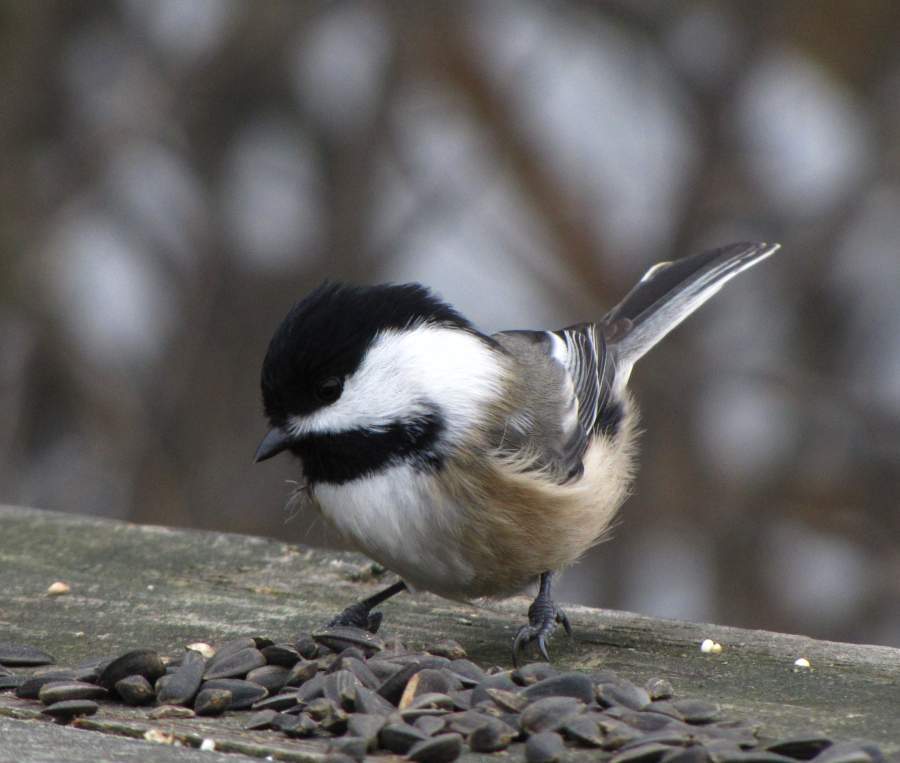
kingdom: Animalia
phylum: Chordata
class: Aves
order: Passeriformes
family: Paridae
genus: Poecile
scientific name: Poecile atricapillus
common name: Black-capped chickadee
